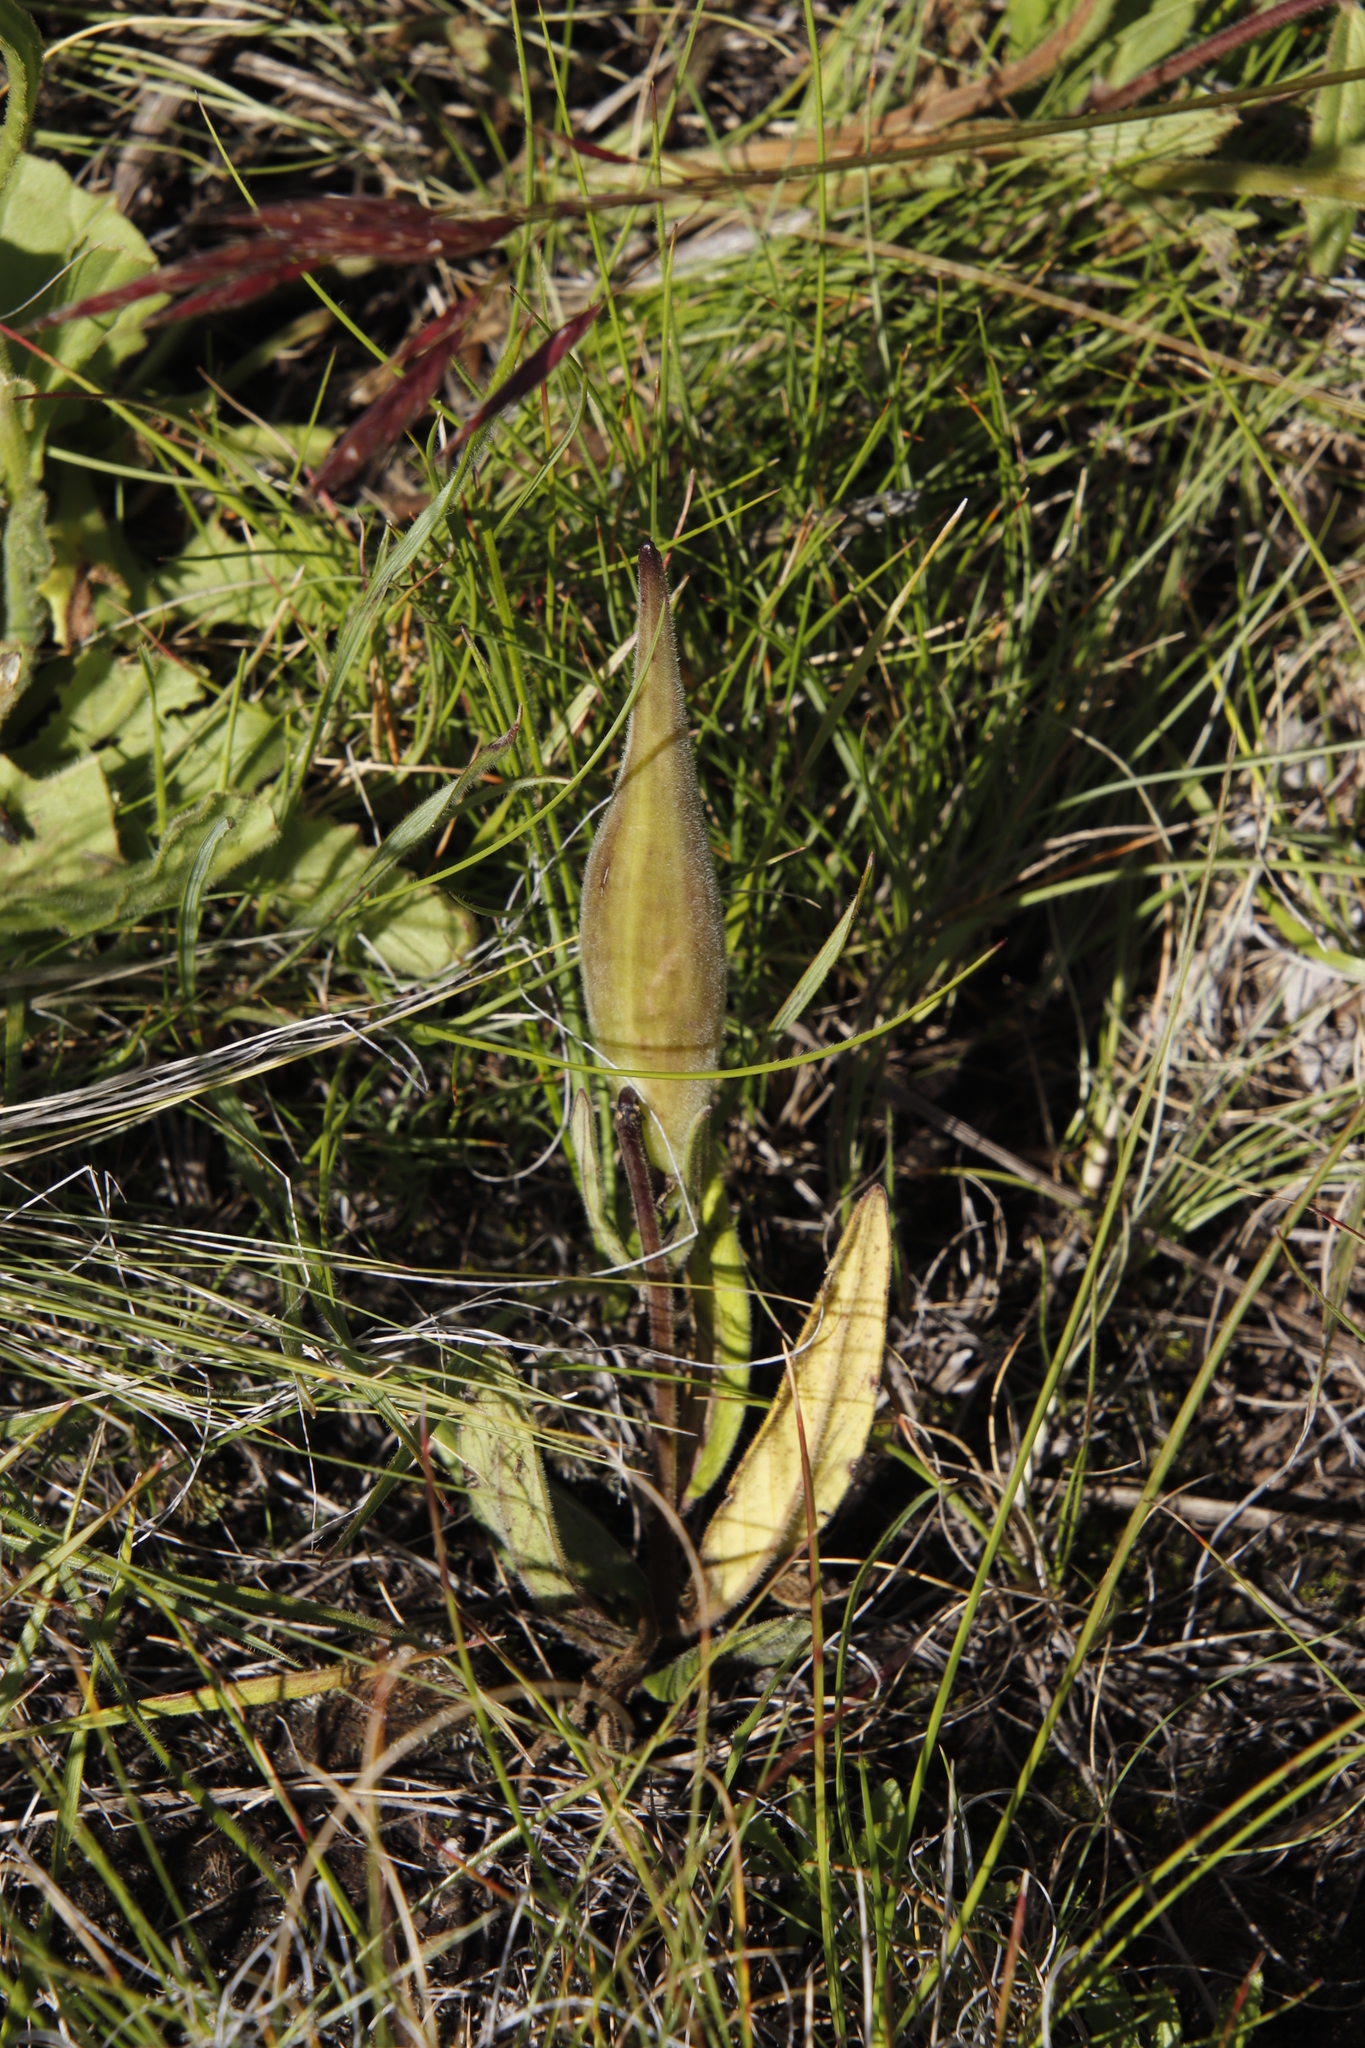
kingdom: Plantae
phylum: Tracheophyta
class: Magnoliopsida
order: Gentianales
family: Apocynaceae
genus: Asclepias
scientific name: Asclepias humilis
